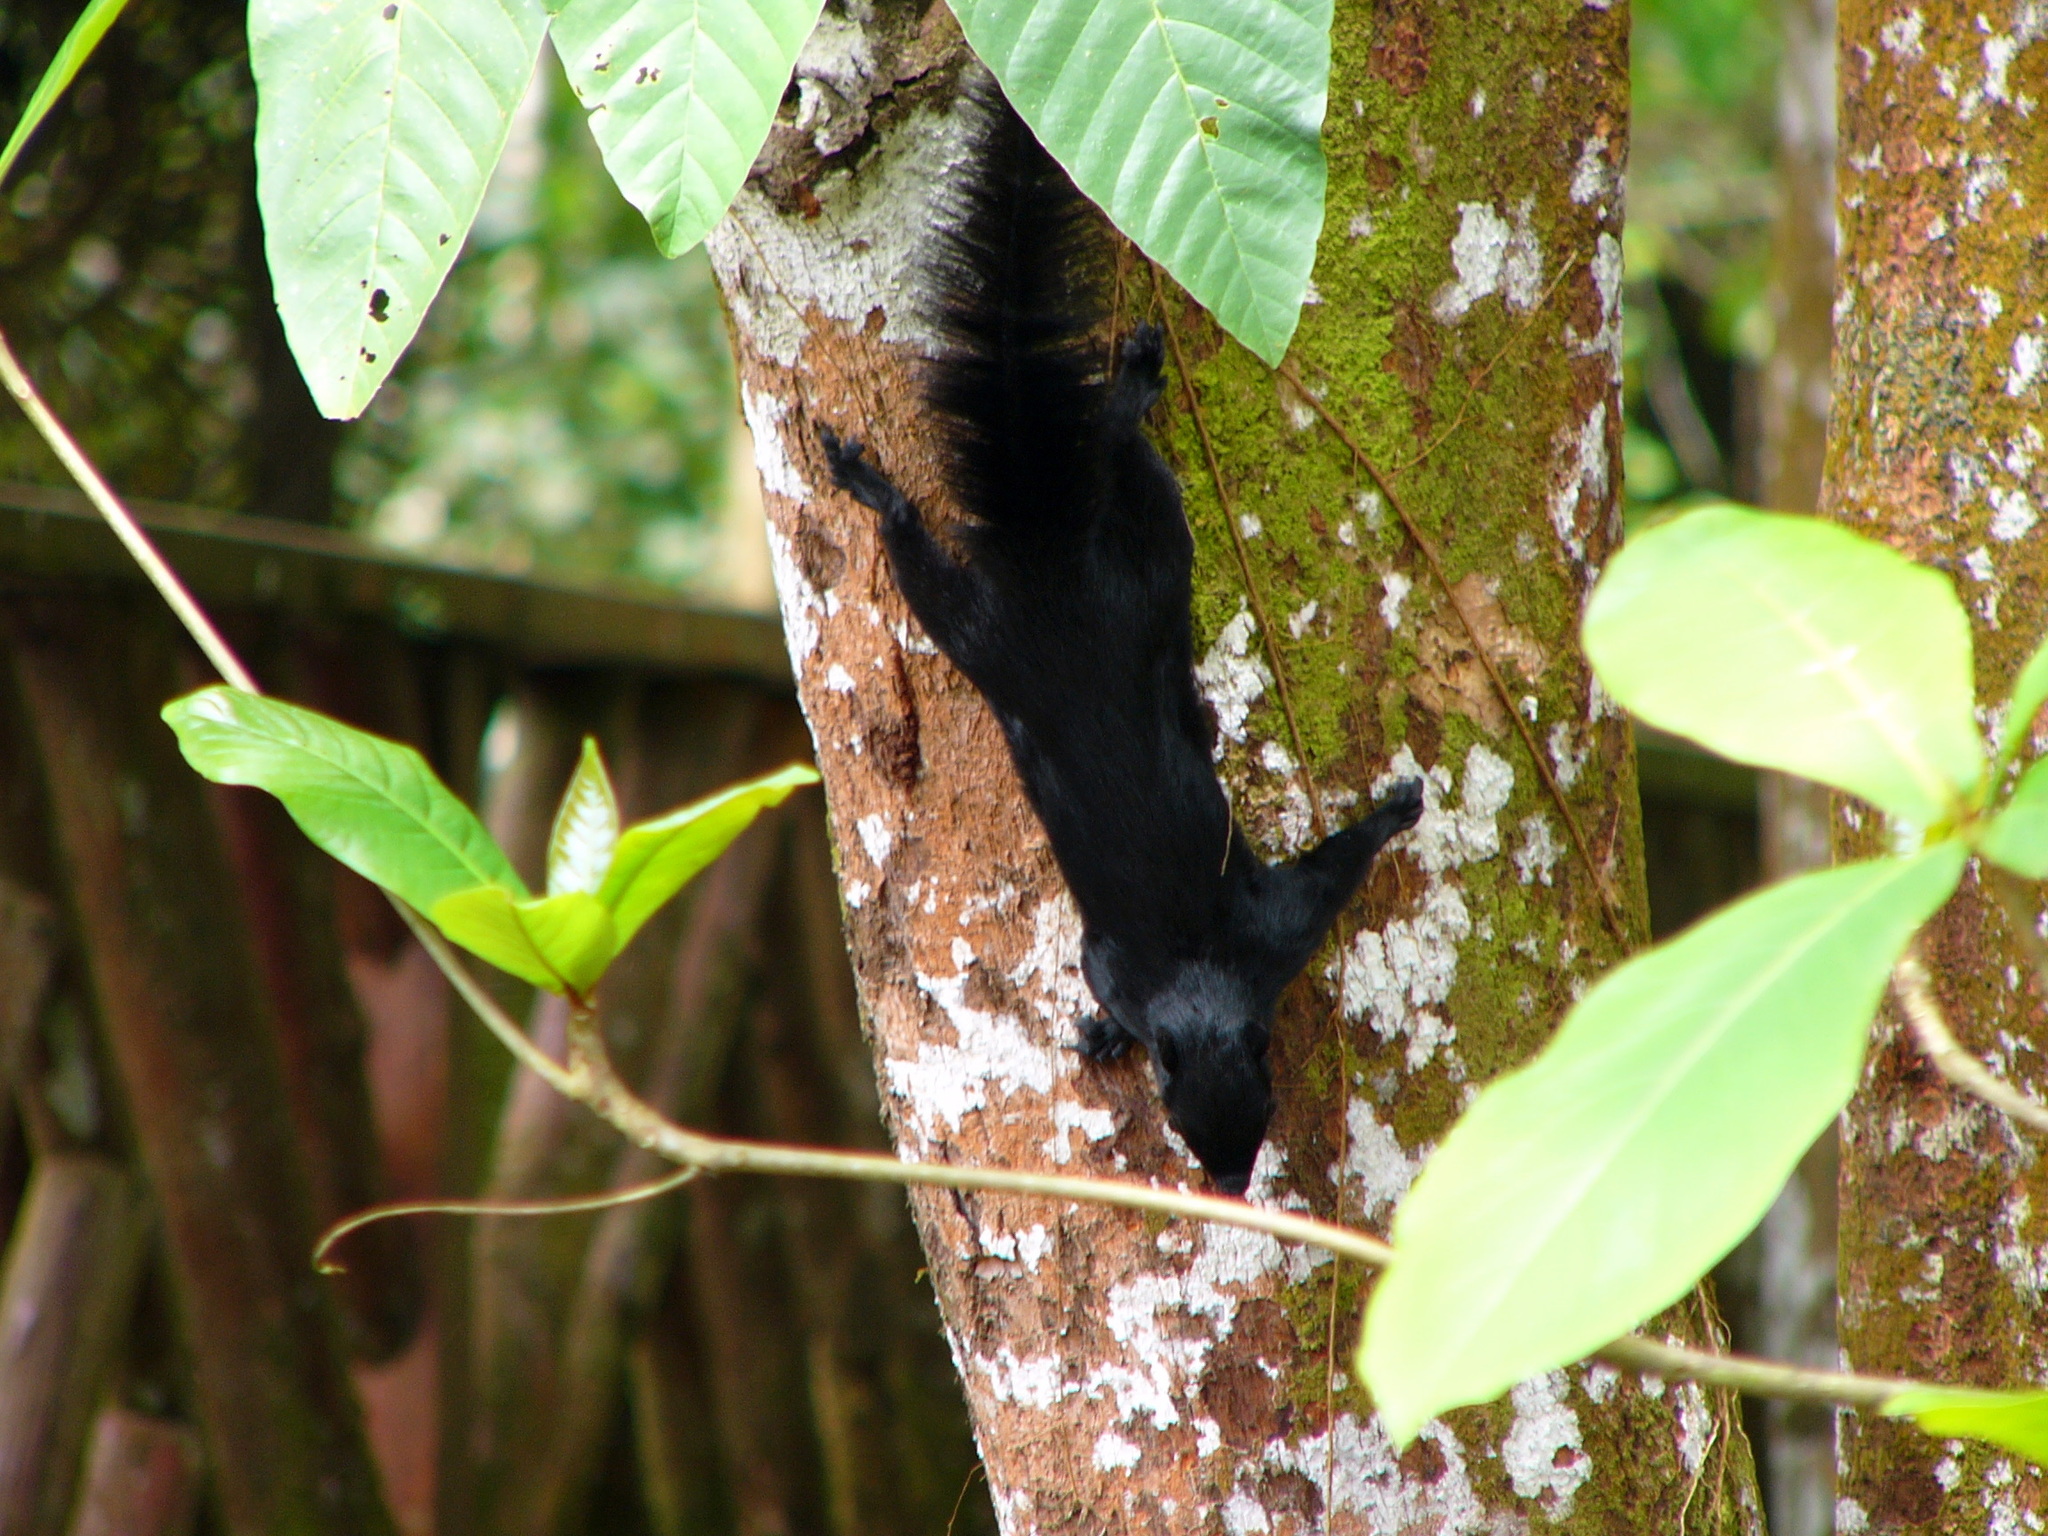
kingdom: Animalia
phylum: Chordata
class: Mammalia
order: Rodentia
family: Sciuridae
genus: Callosciurus
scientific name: Callosciurus prevostii
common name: Prevost's squirrel
